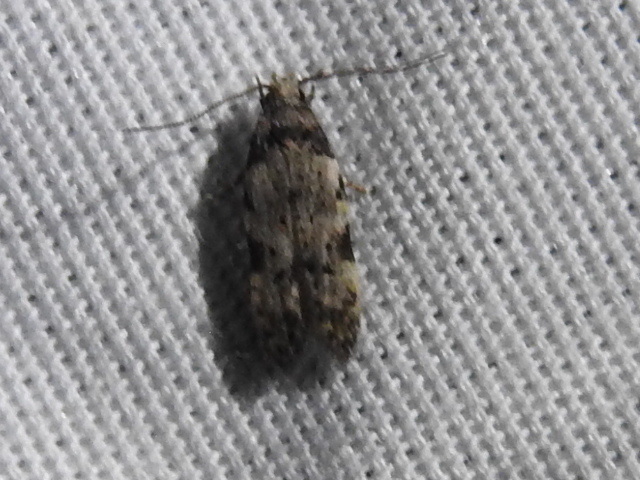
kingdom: Animalia
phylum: Arthropoda
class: Insecta
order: Lepidoptera
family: Autostichidae
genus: Taygete
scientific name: Taygete attributella
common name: Triangle-marked twirler moth
